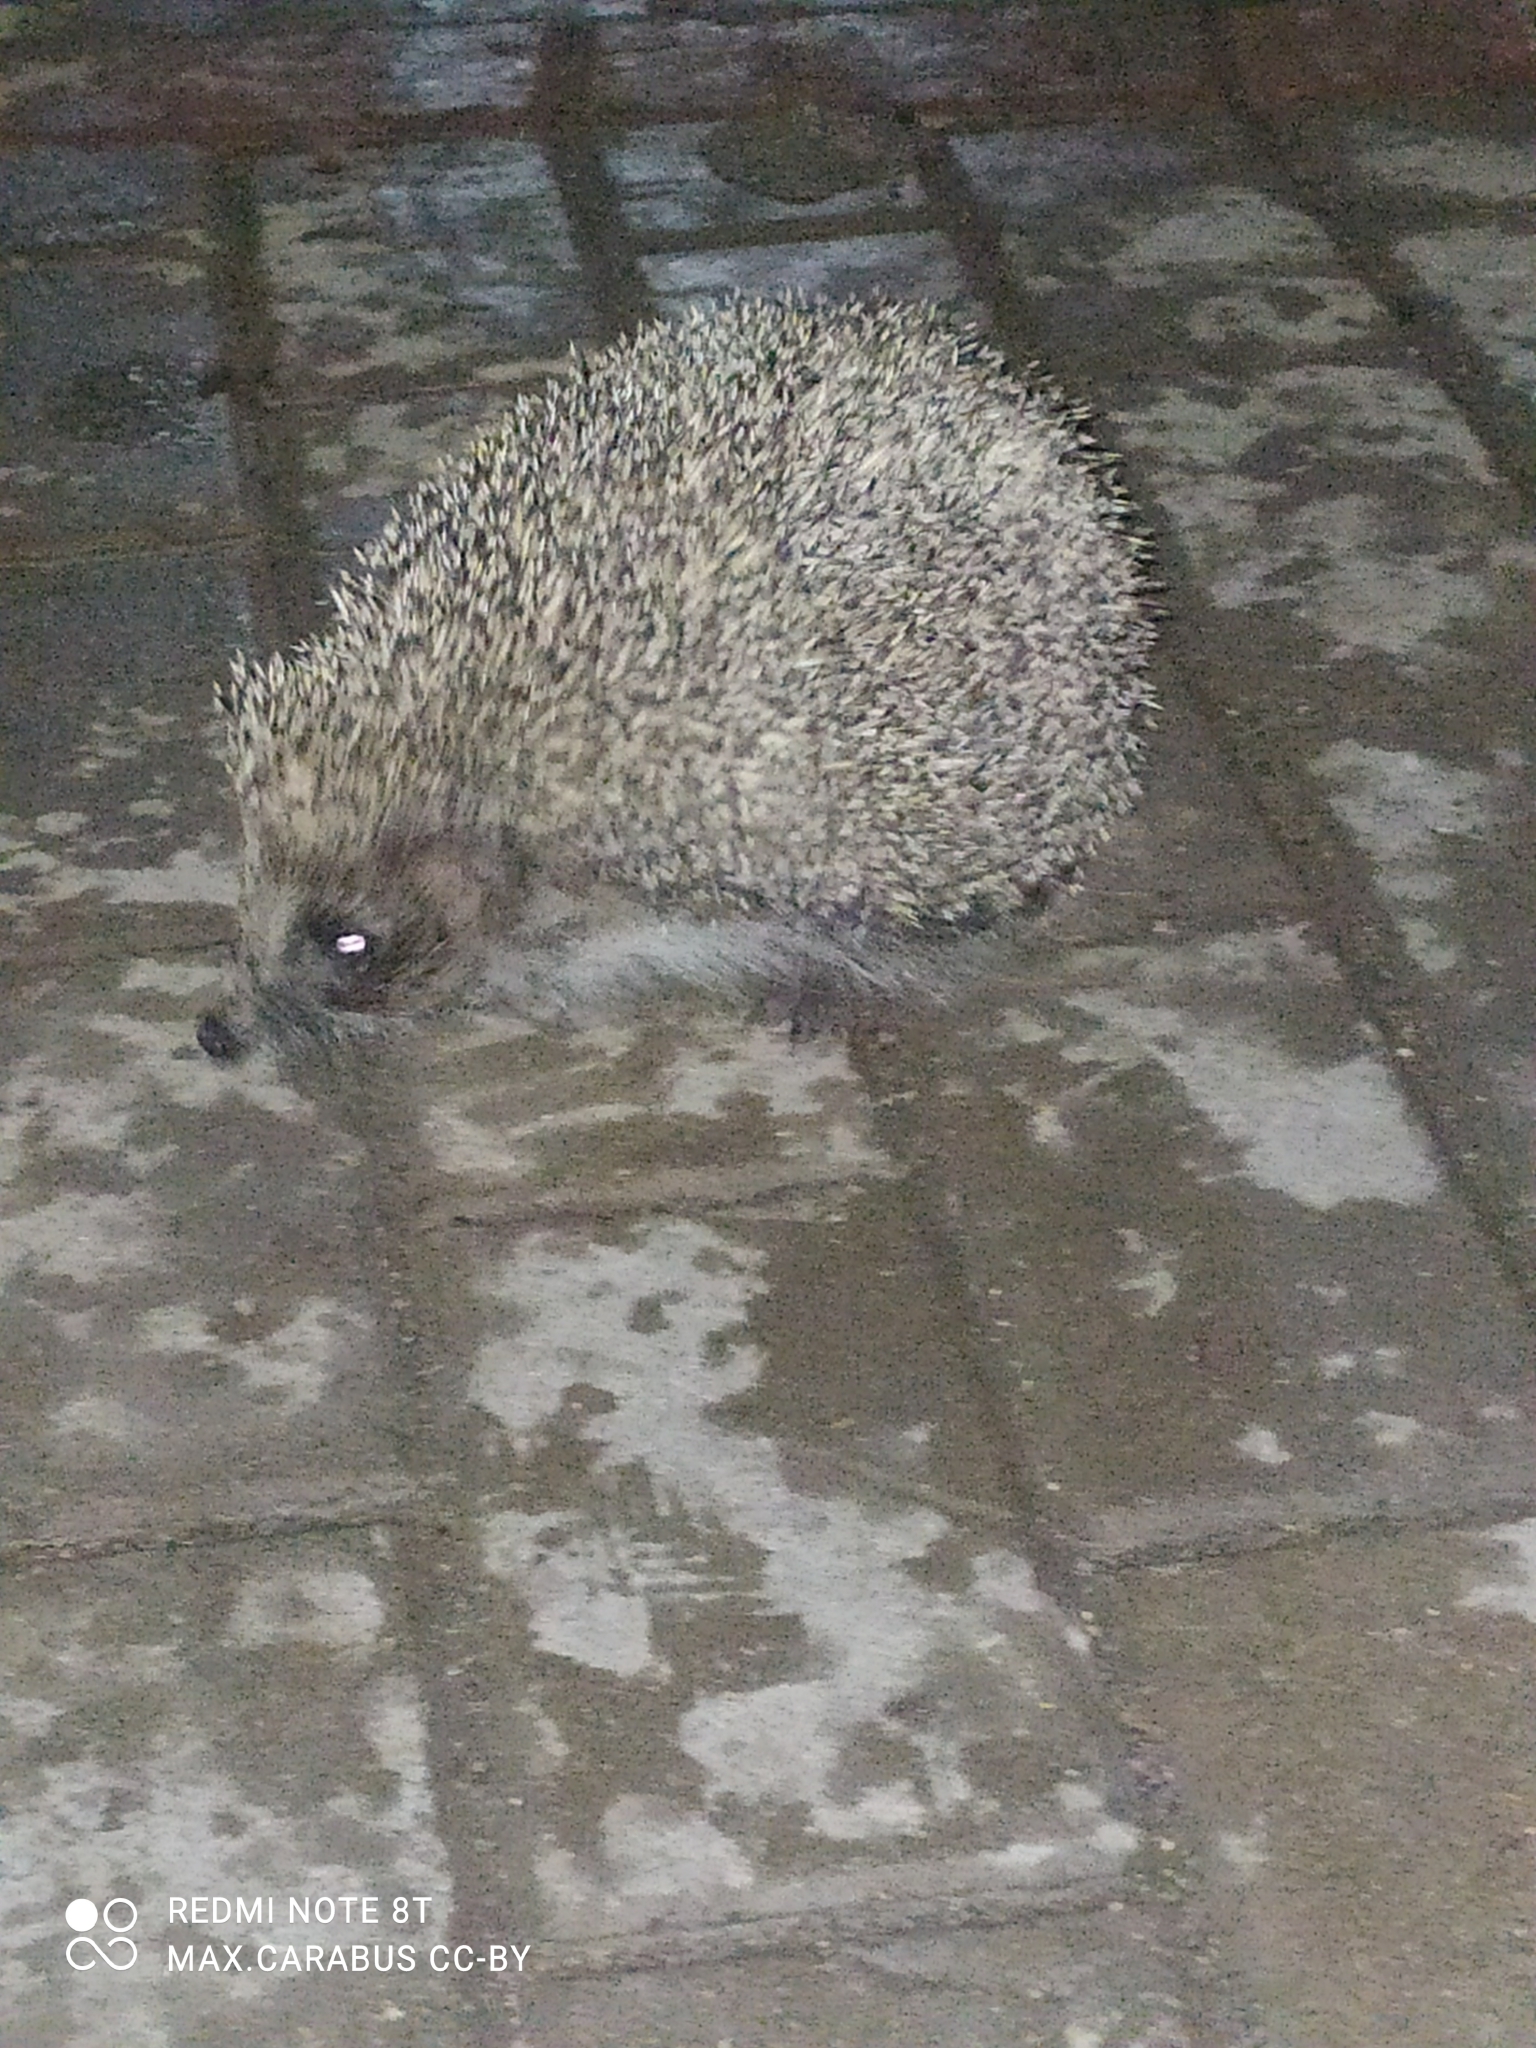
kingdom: Animalia
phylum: Chordata
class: Mammalia
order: Erinaceomorpha
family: Erinaceidae
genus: Erinaceus
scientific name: Erinaceus roumanicus
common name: Northern white-breasted hedgehog
